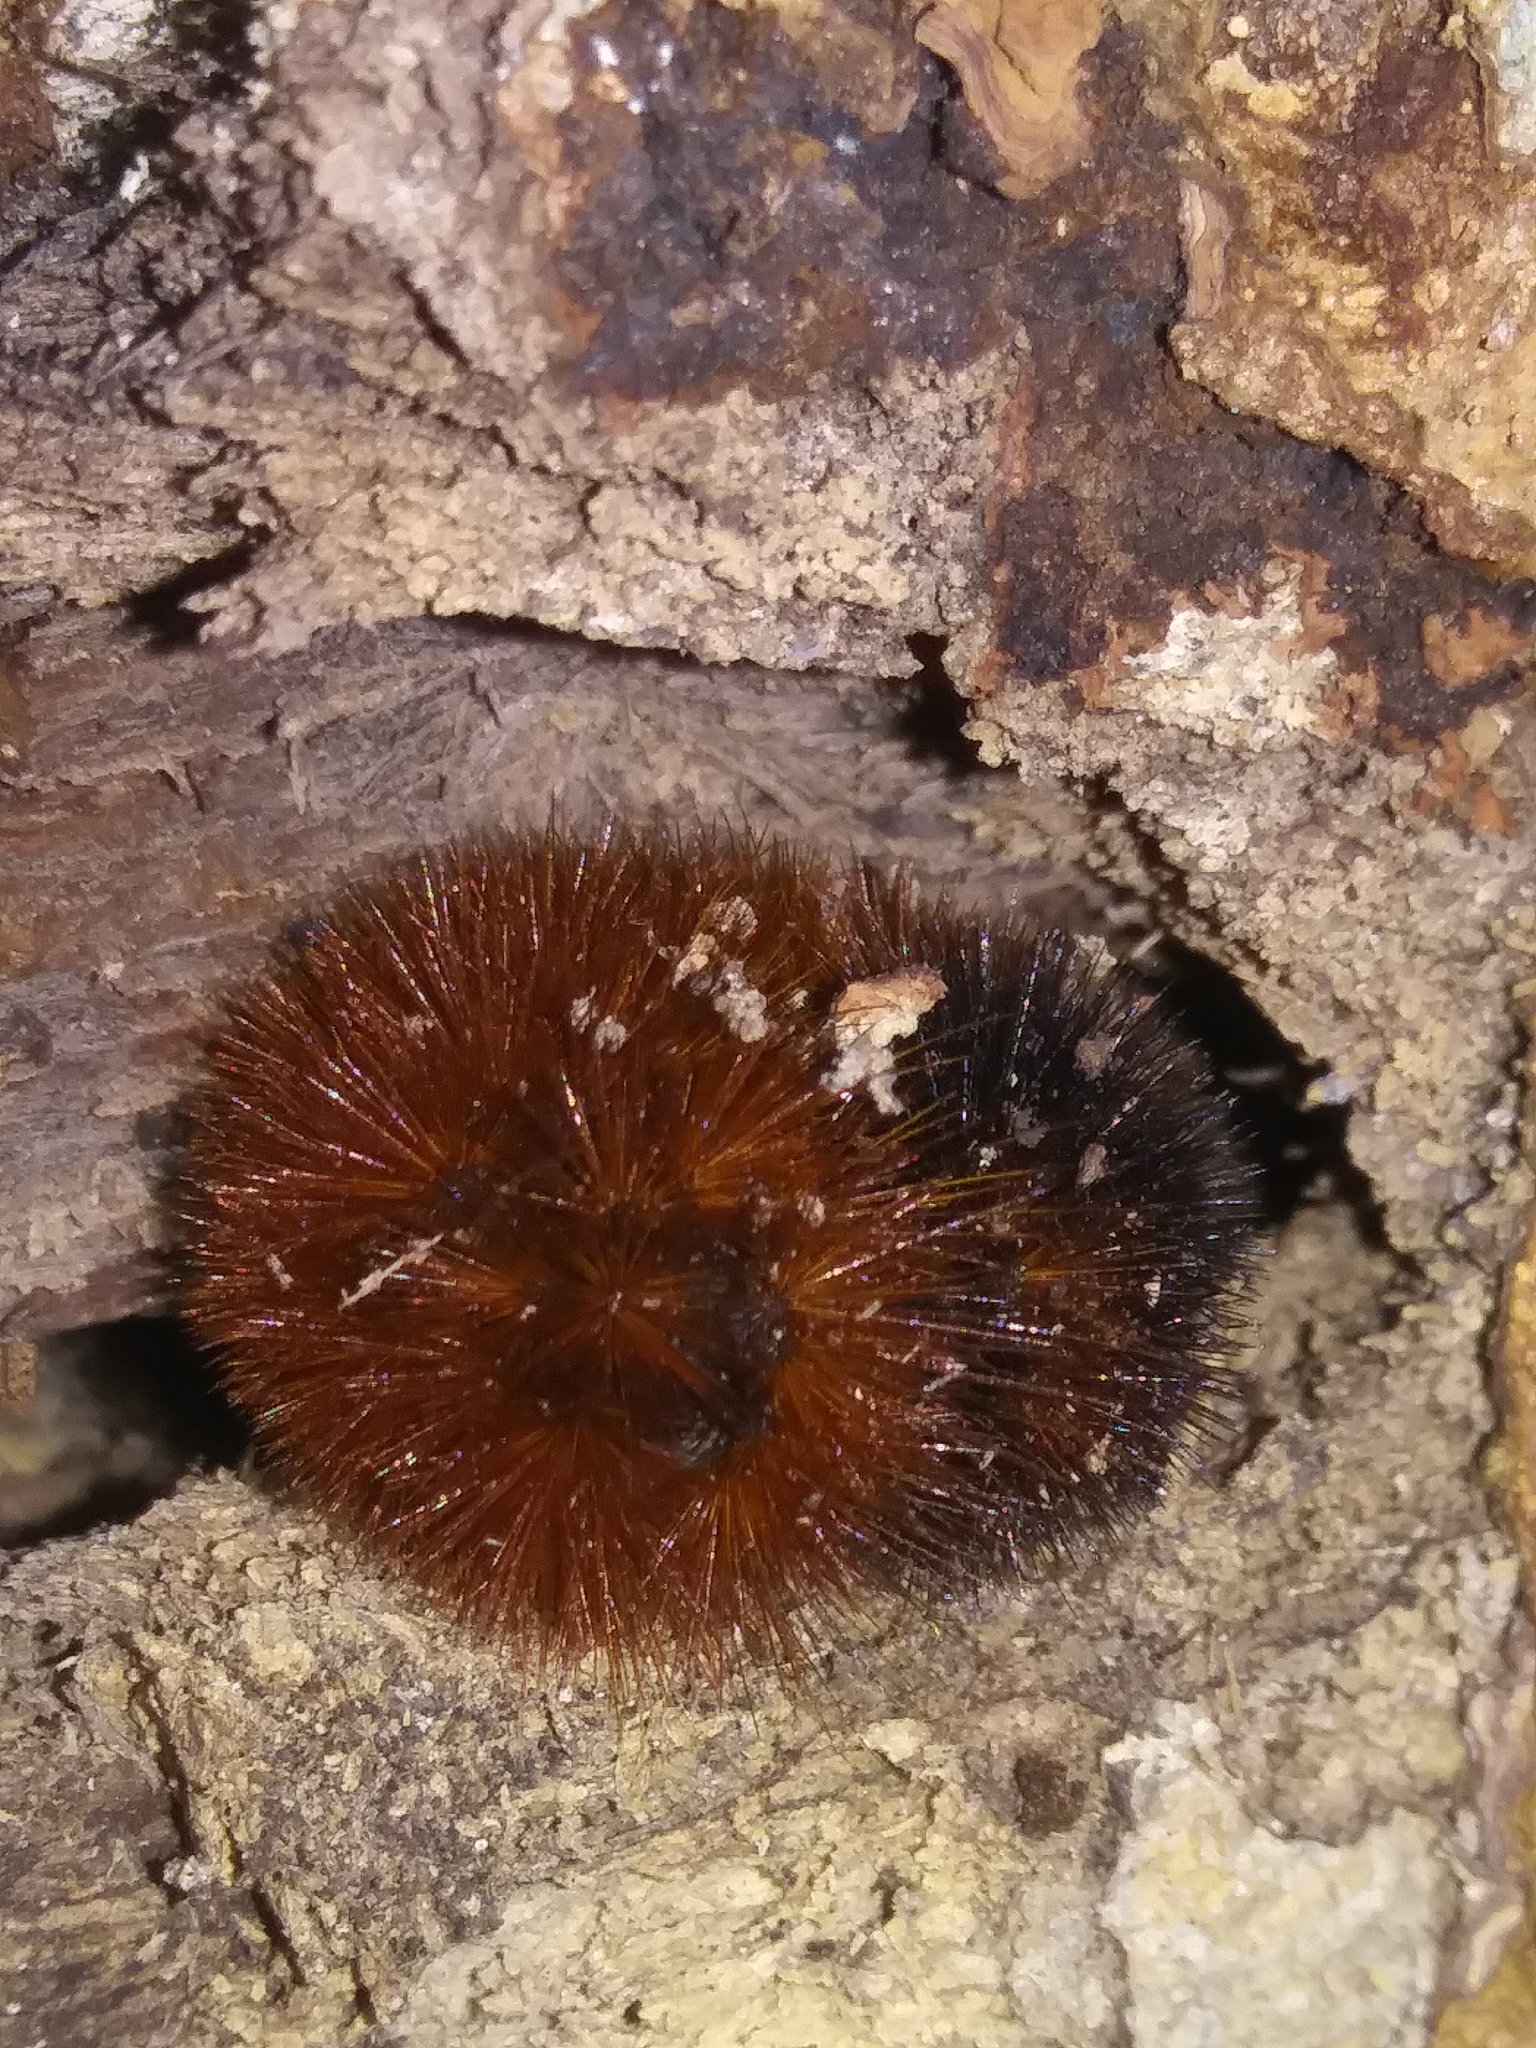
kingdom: Animalia
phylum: Arthropoda
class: Insecta
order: Lepidoptera
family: Erebidae
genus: Pyrrharctia
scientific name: Pyrrharctia isabella
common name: Isabella tiger moth
